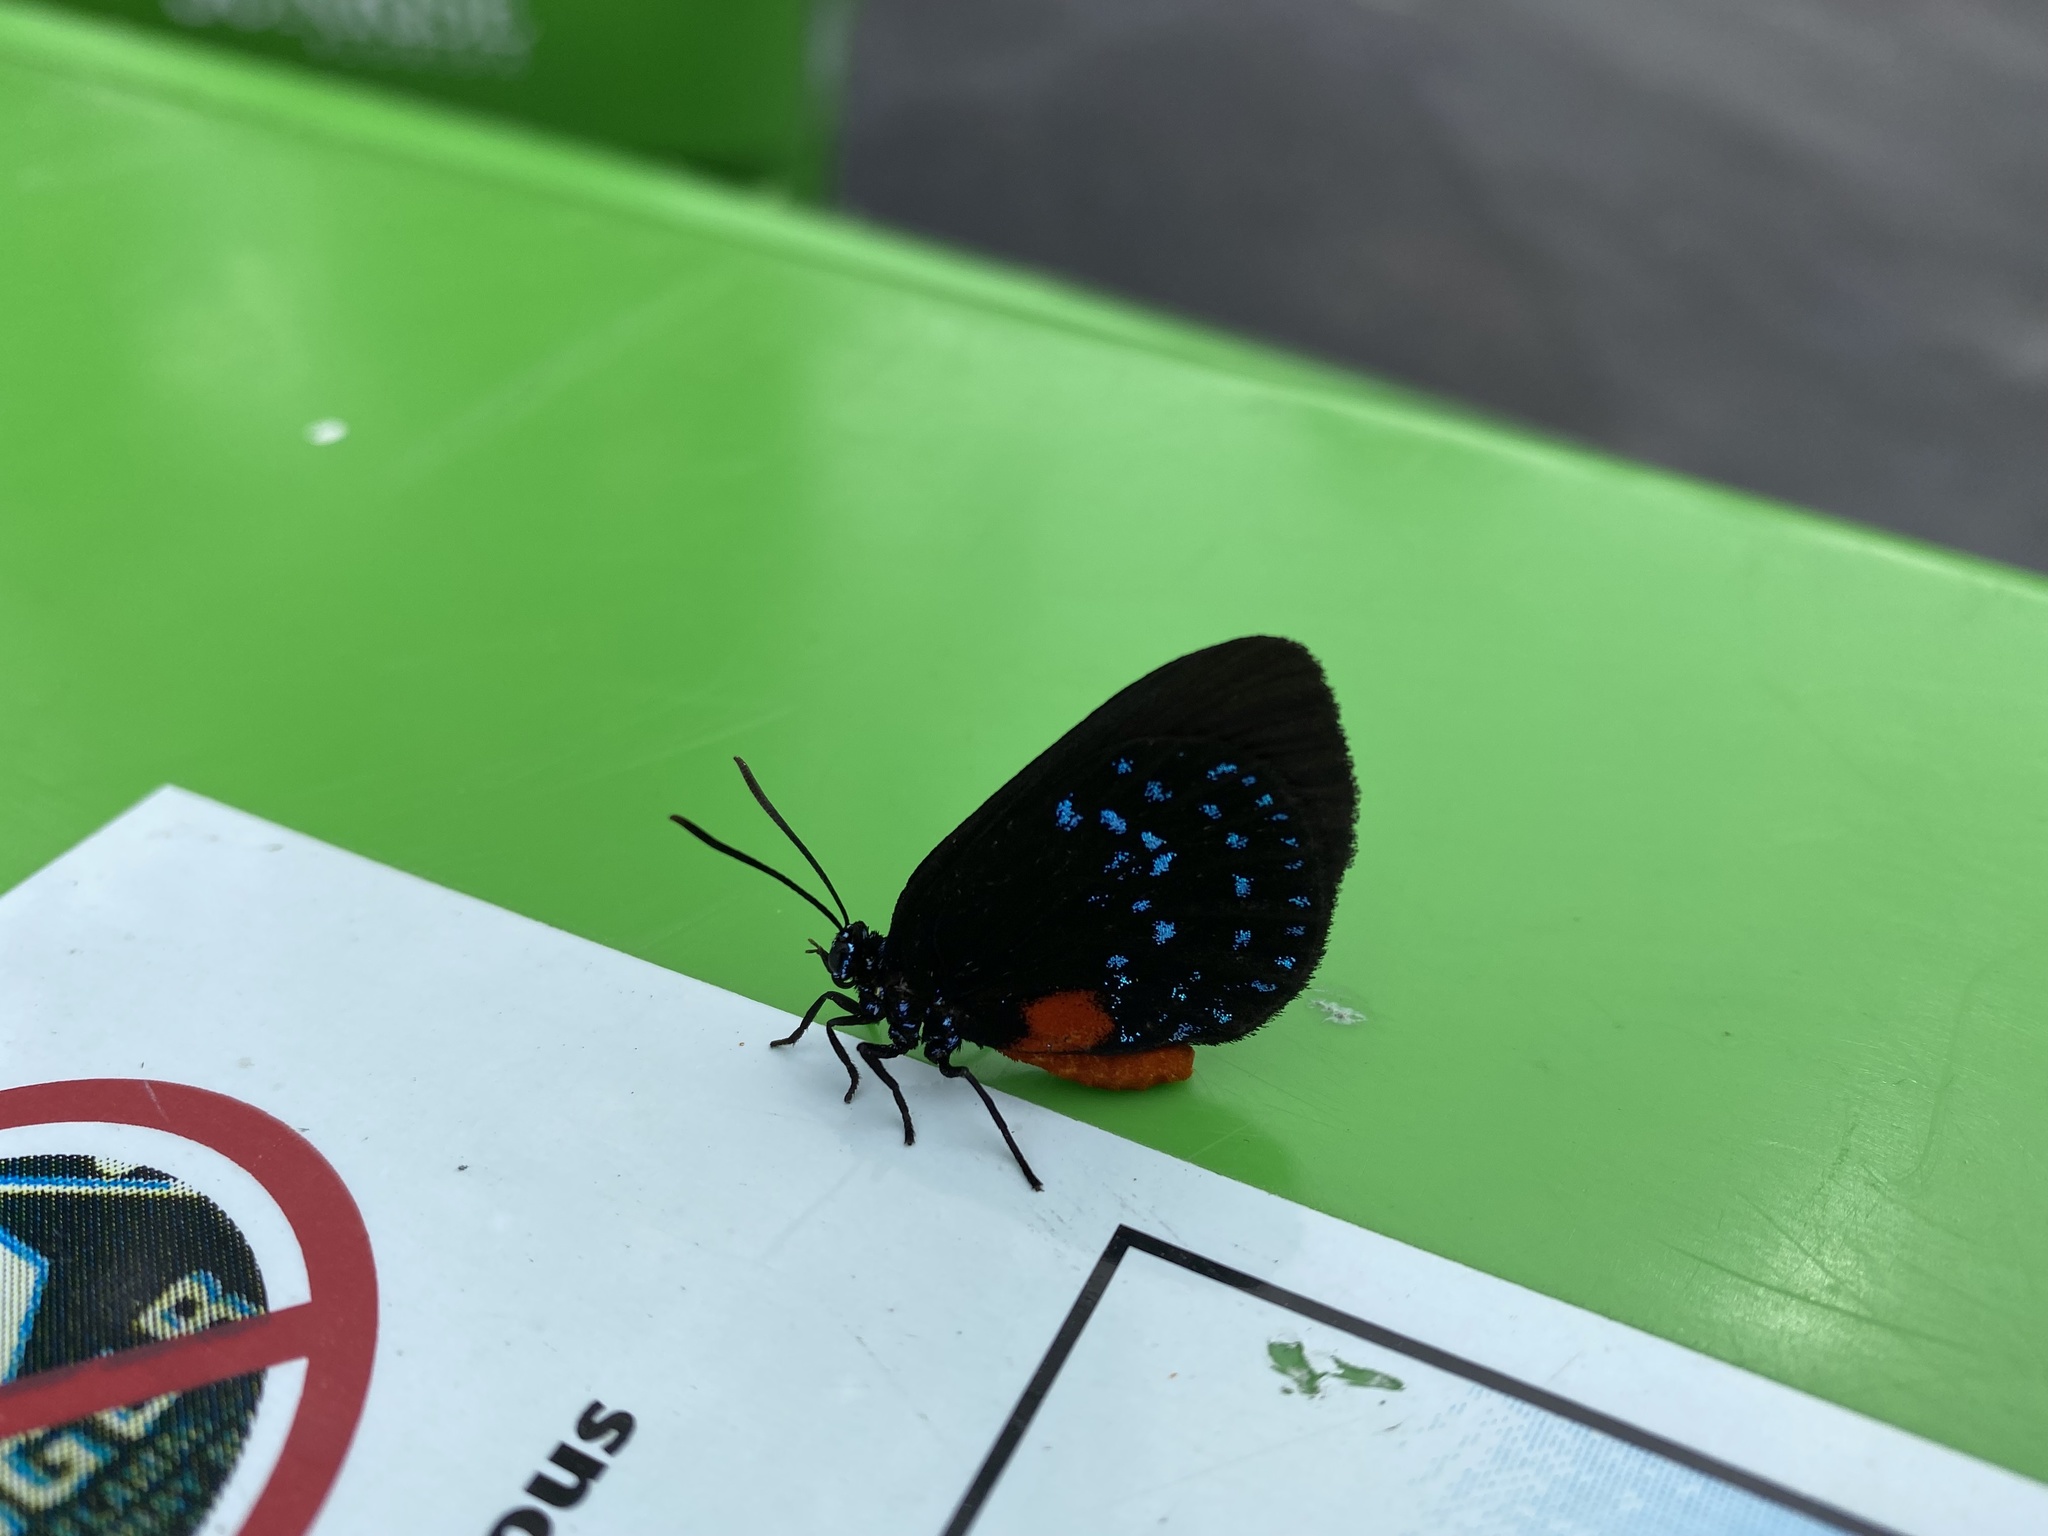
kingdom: Animalia
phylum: Arthropoda
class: Insecta
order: Lepidoptera
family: Lycaenidae
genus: Eumaeus
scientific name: Eumaeus atala
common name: Atala
